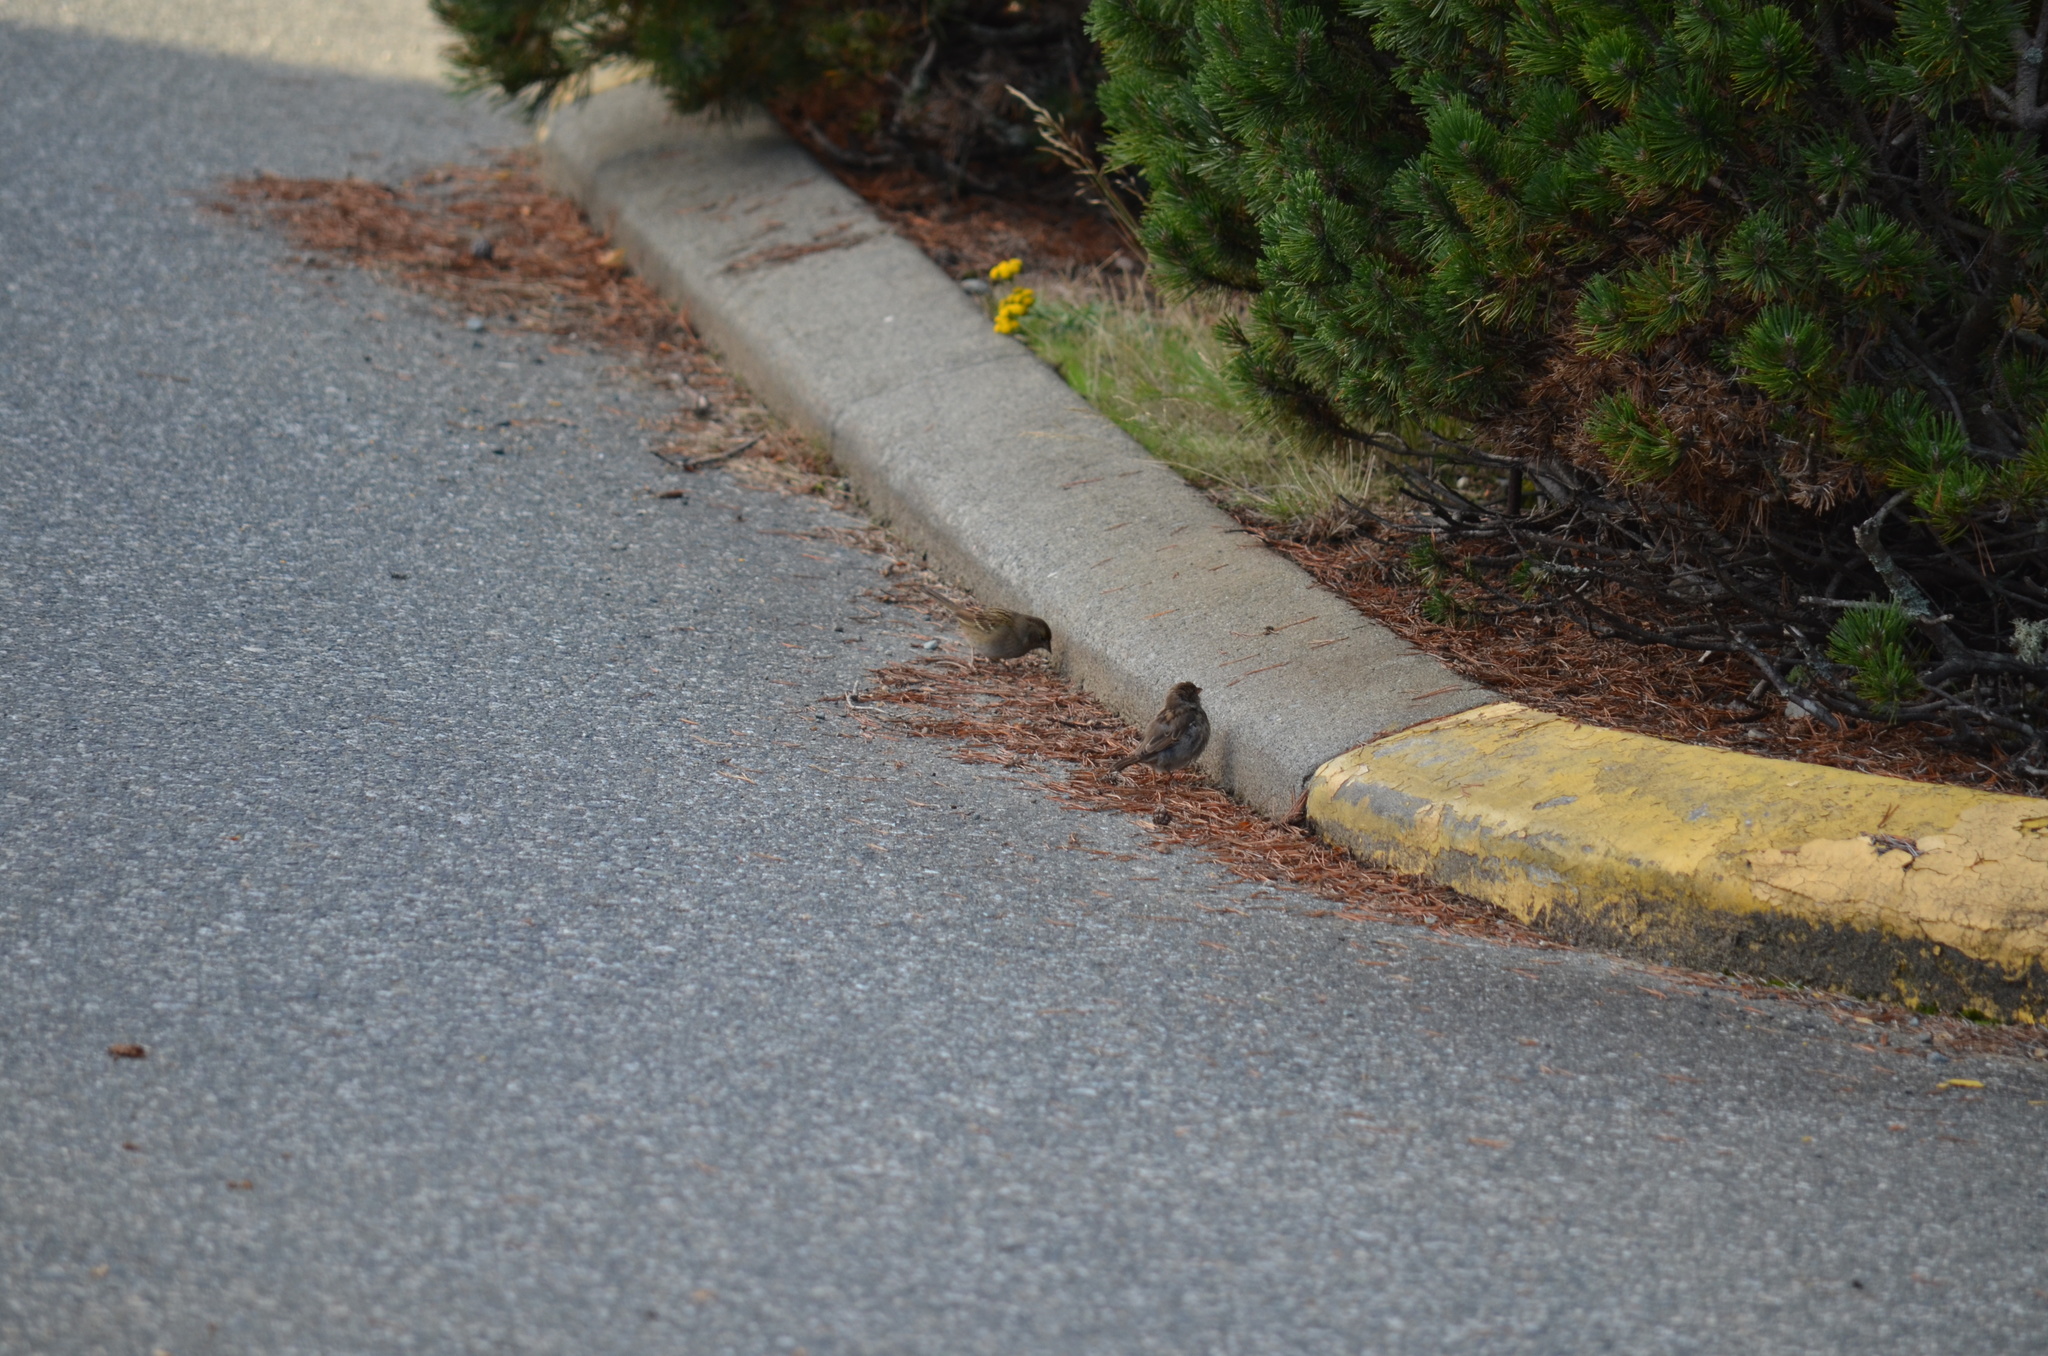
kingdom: Animalia
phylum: Chordata
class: Aves
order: Passeriformes
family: Passeridae
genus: Passer
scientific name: Passer domesticus
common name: House sparrow
